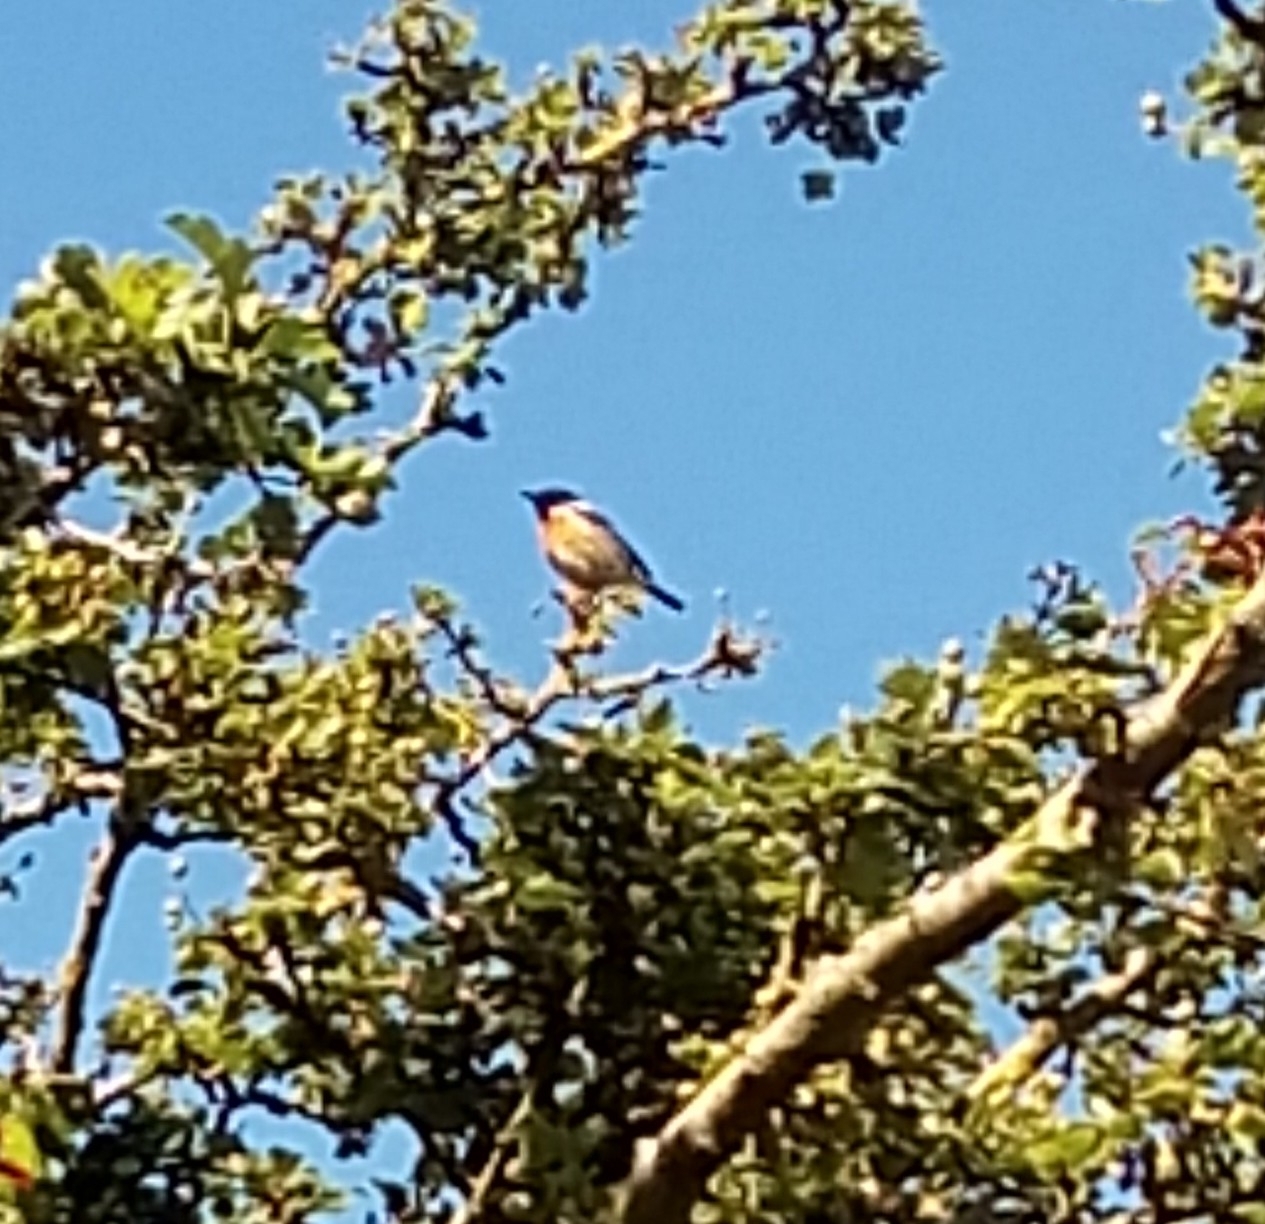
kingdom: Animalia
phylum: Chordata
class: Aves
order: Passeriformes
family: Muscicapidae
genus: Saxicola
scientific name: Saxicola rubicola
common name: European stonechat
